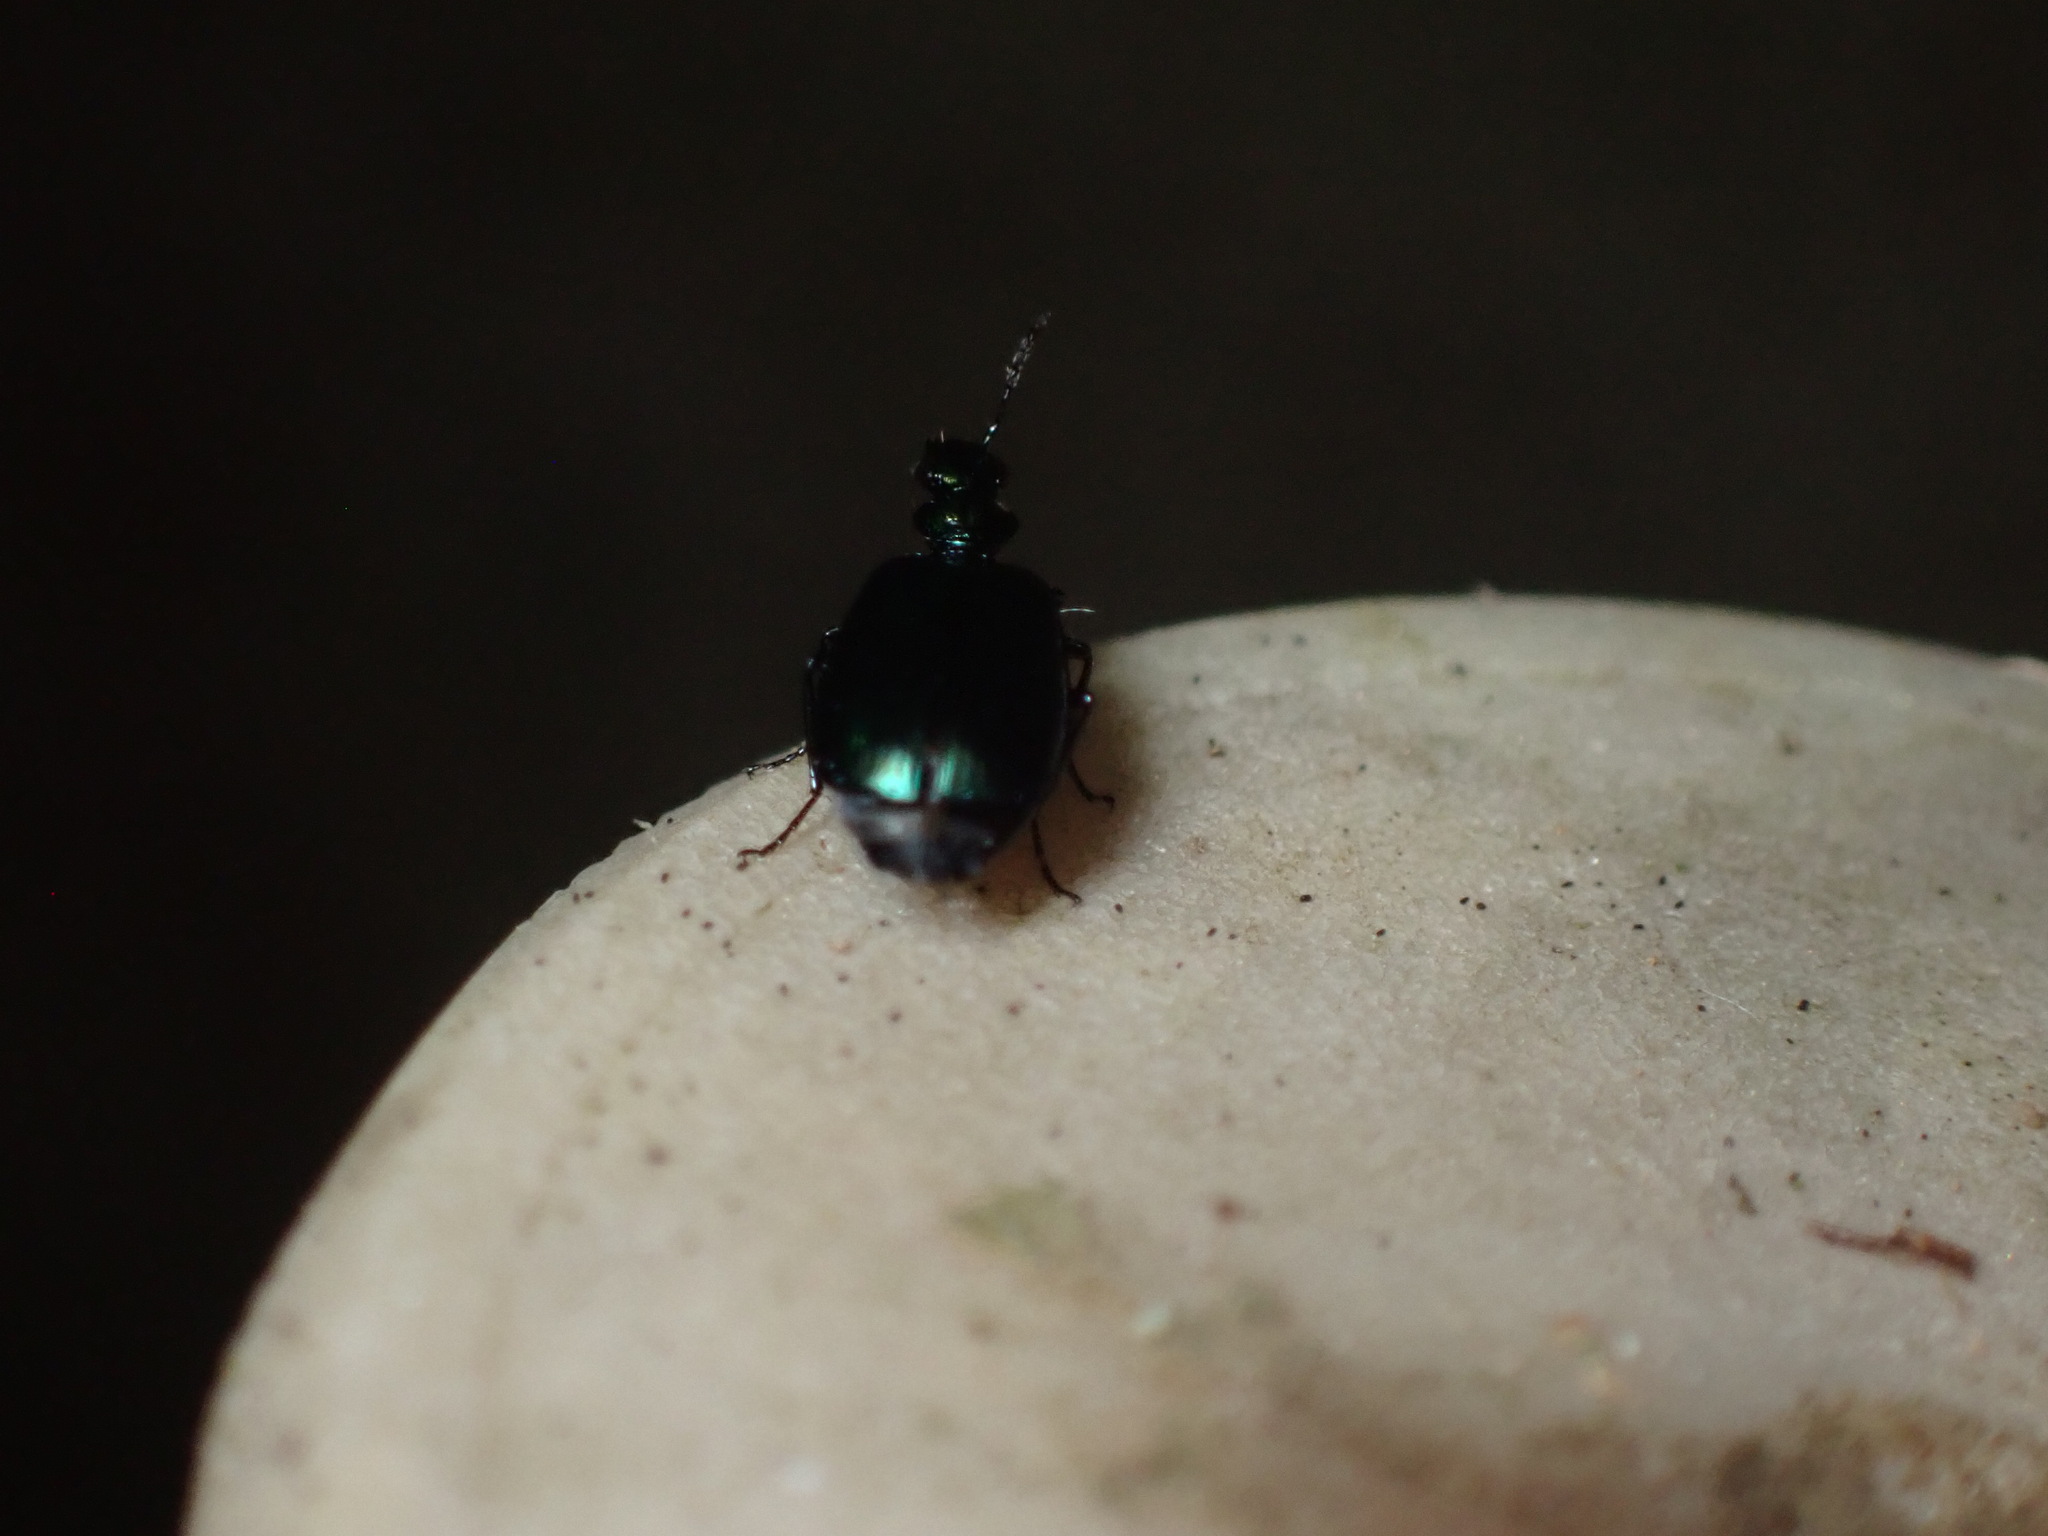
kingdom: Animalia
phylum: Arthropoda
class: Insecta
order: Coleoptera
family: Carabidae
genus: Lebia
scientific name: Lebia viridis
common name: Flower lebia beetle
